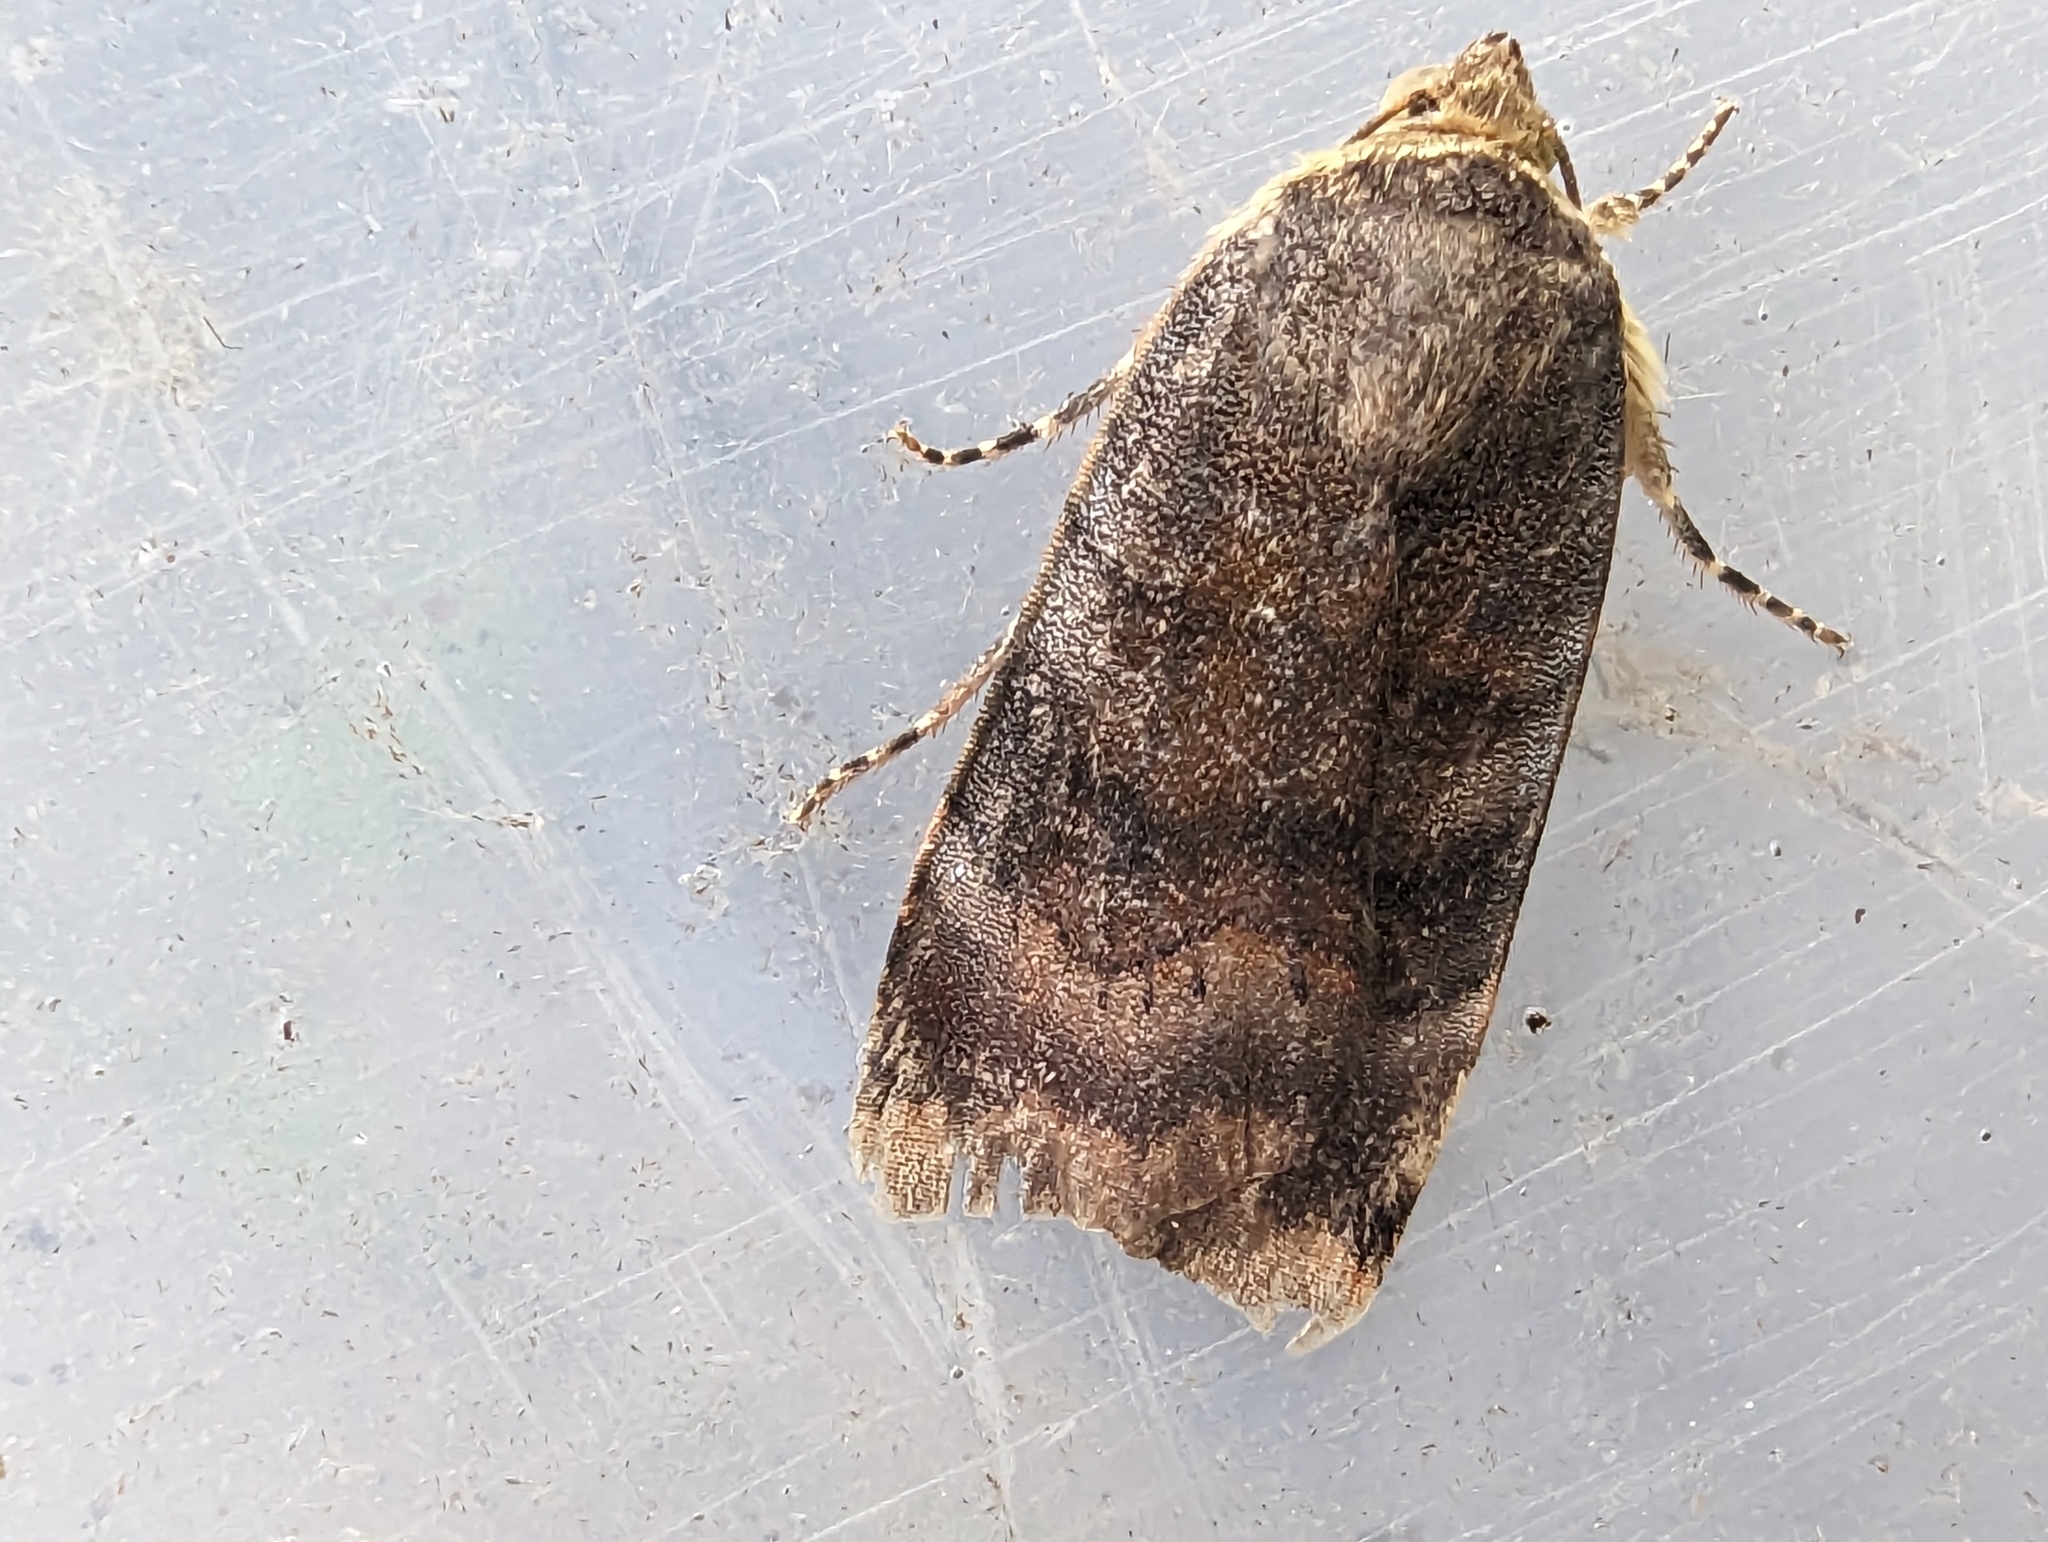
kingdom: Animalia
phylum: Arthropoda
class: Insecta
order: Lepidoptera
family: Noctuidae
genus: Noctua
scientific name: Noctua janthe
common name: Lesser broad-bordered yellow underwing
